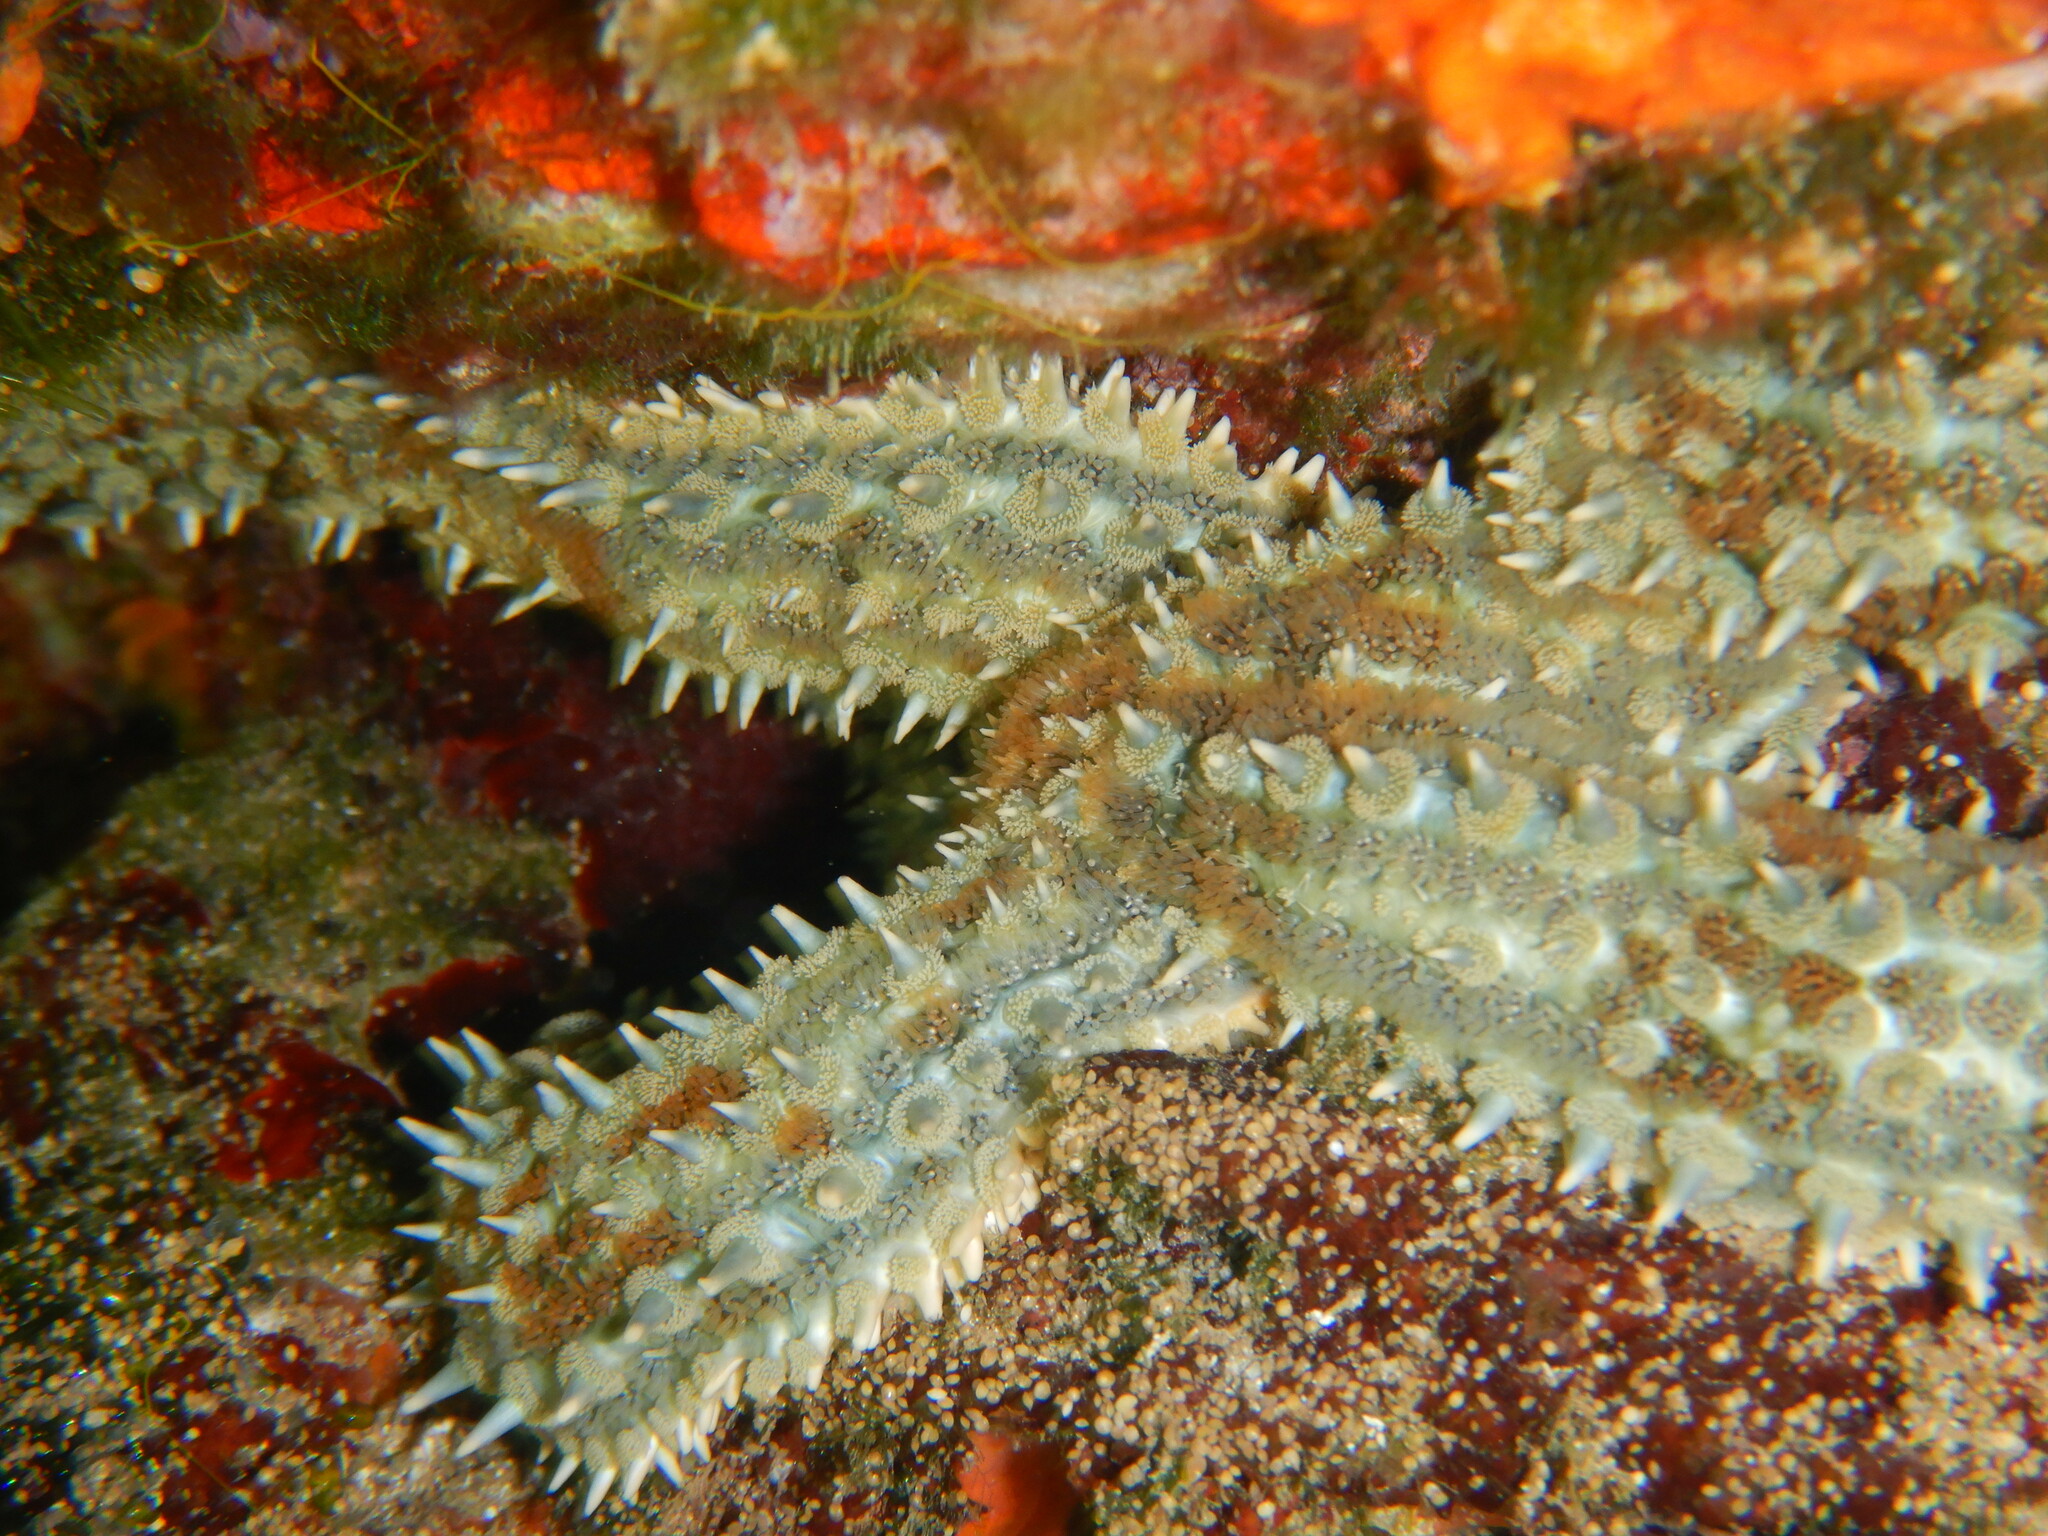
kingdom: Animalia
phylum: Echinodermata
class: Asteroidea
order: Forcipulatida
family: Asteriidae
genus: Marthasterias
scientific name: Marthasterias glacialis
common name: Spiny starfish
